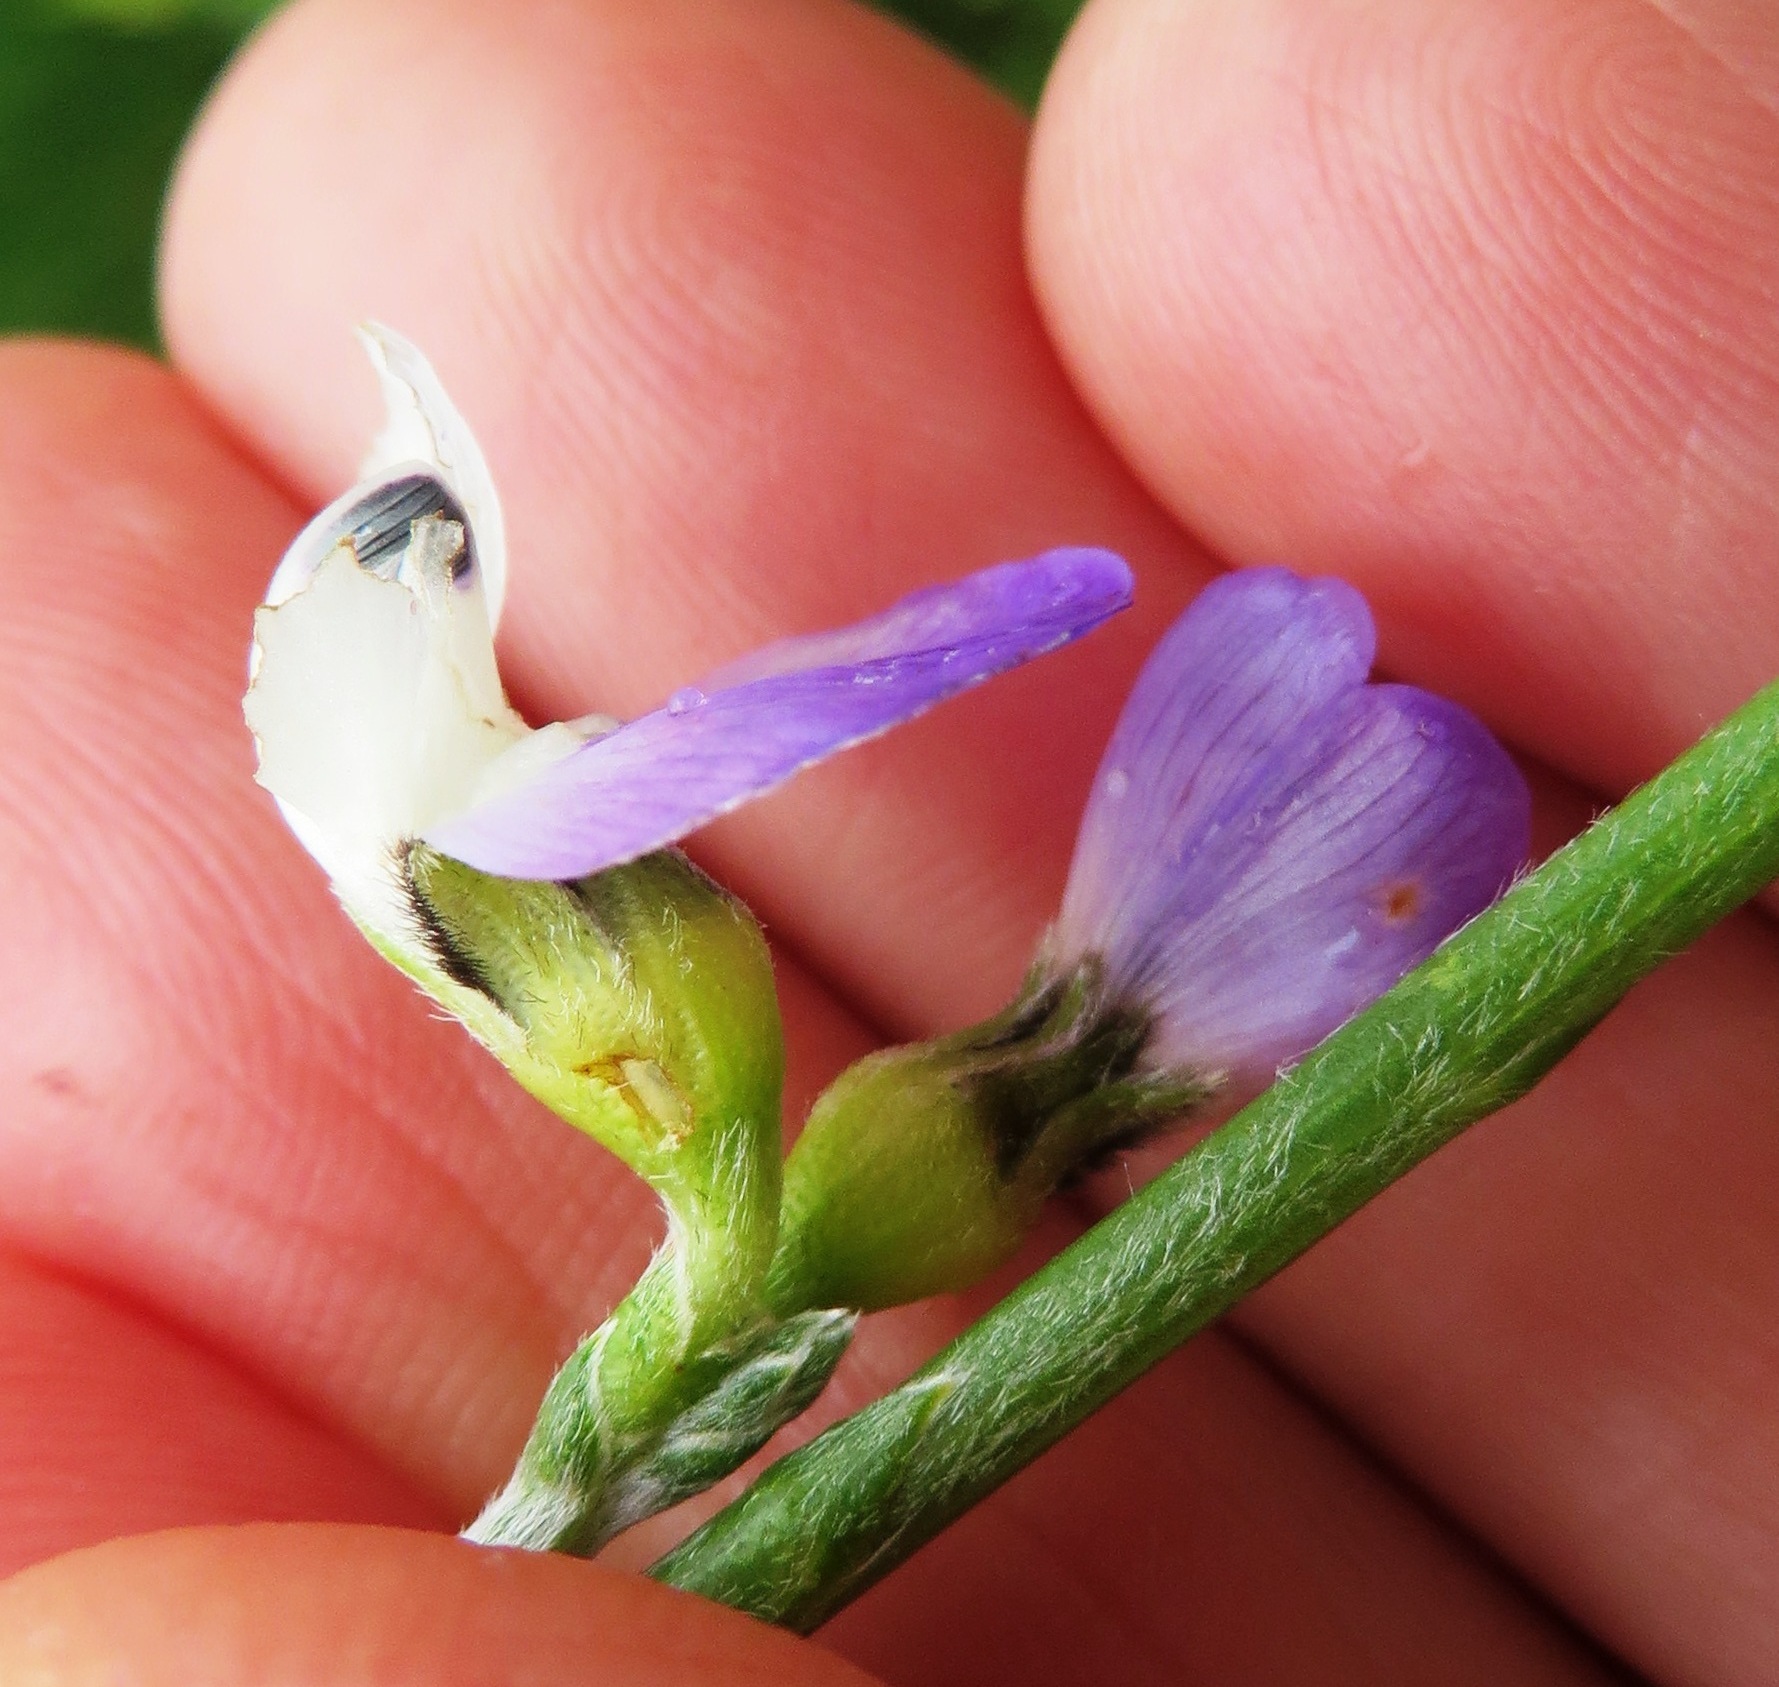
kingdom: Plantae
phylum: Tracheophyta
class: Magnoliopsida
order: Fabales
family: Fabaceae
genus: Psoralea
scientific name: Psoralea pullata
